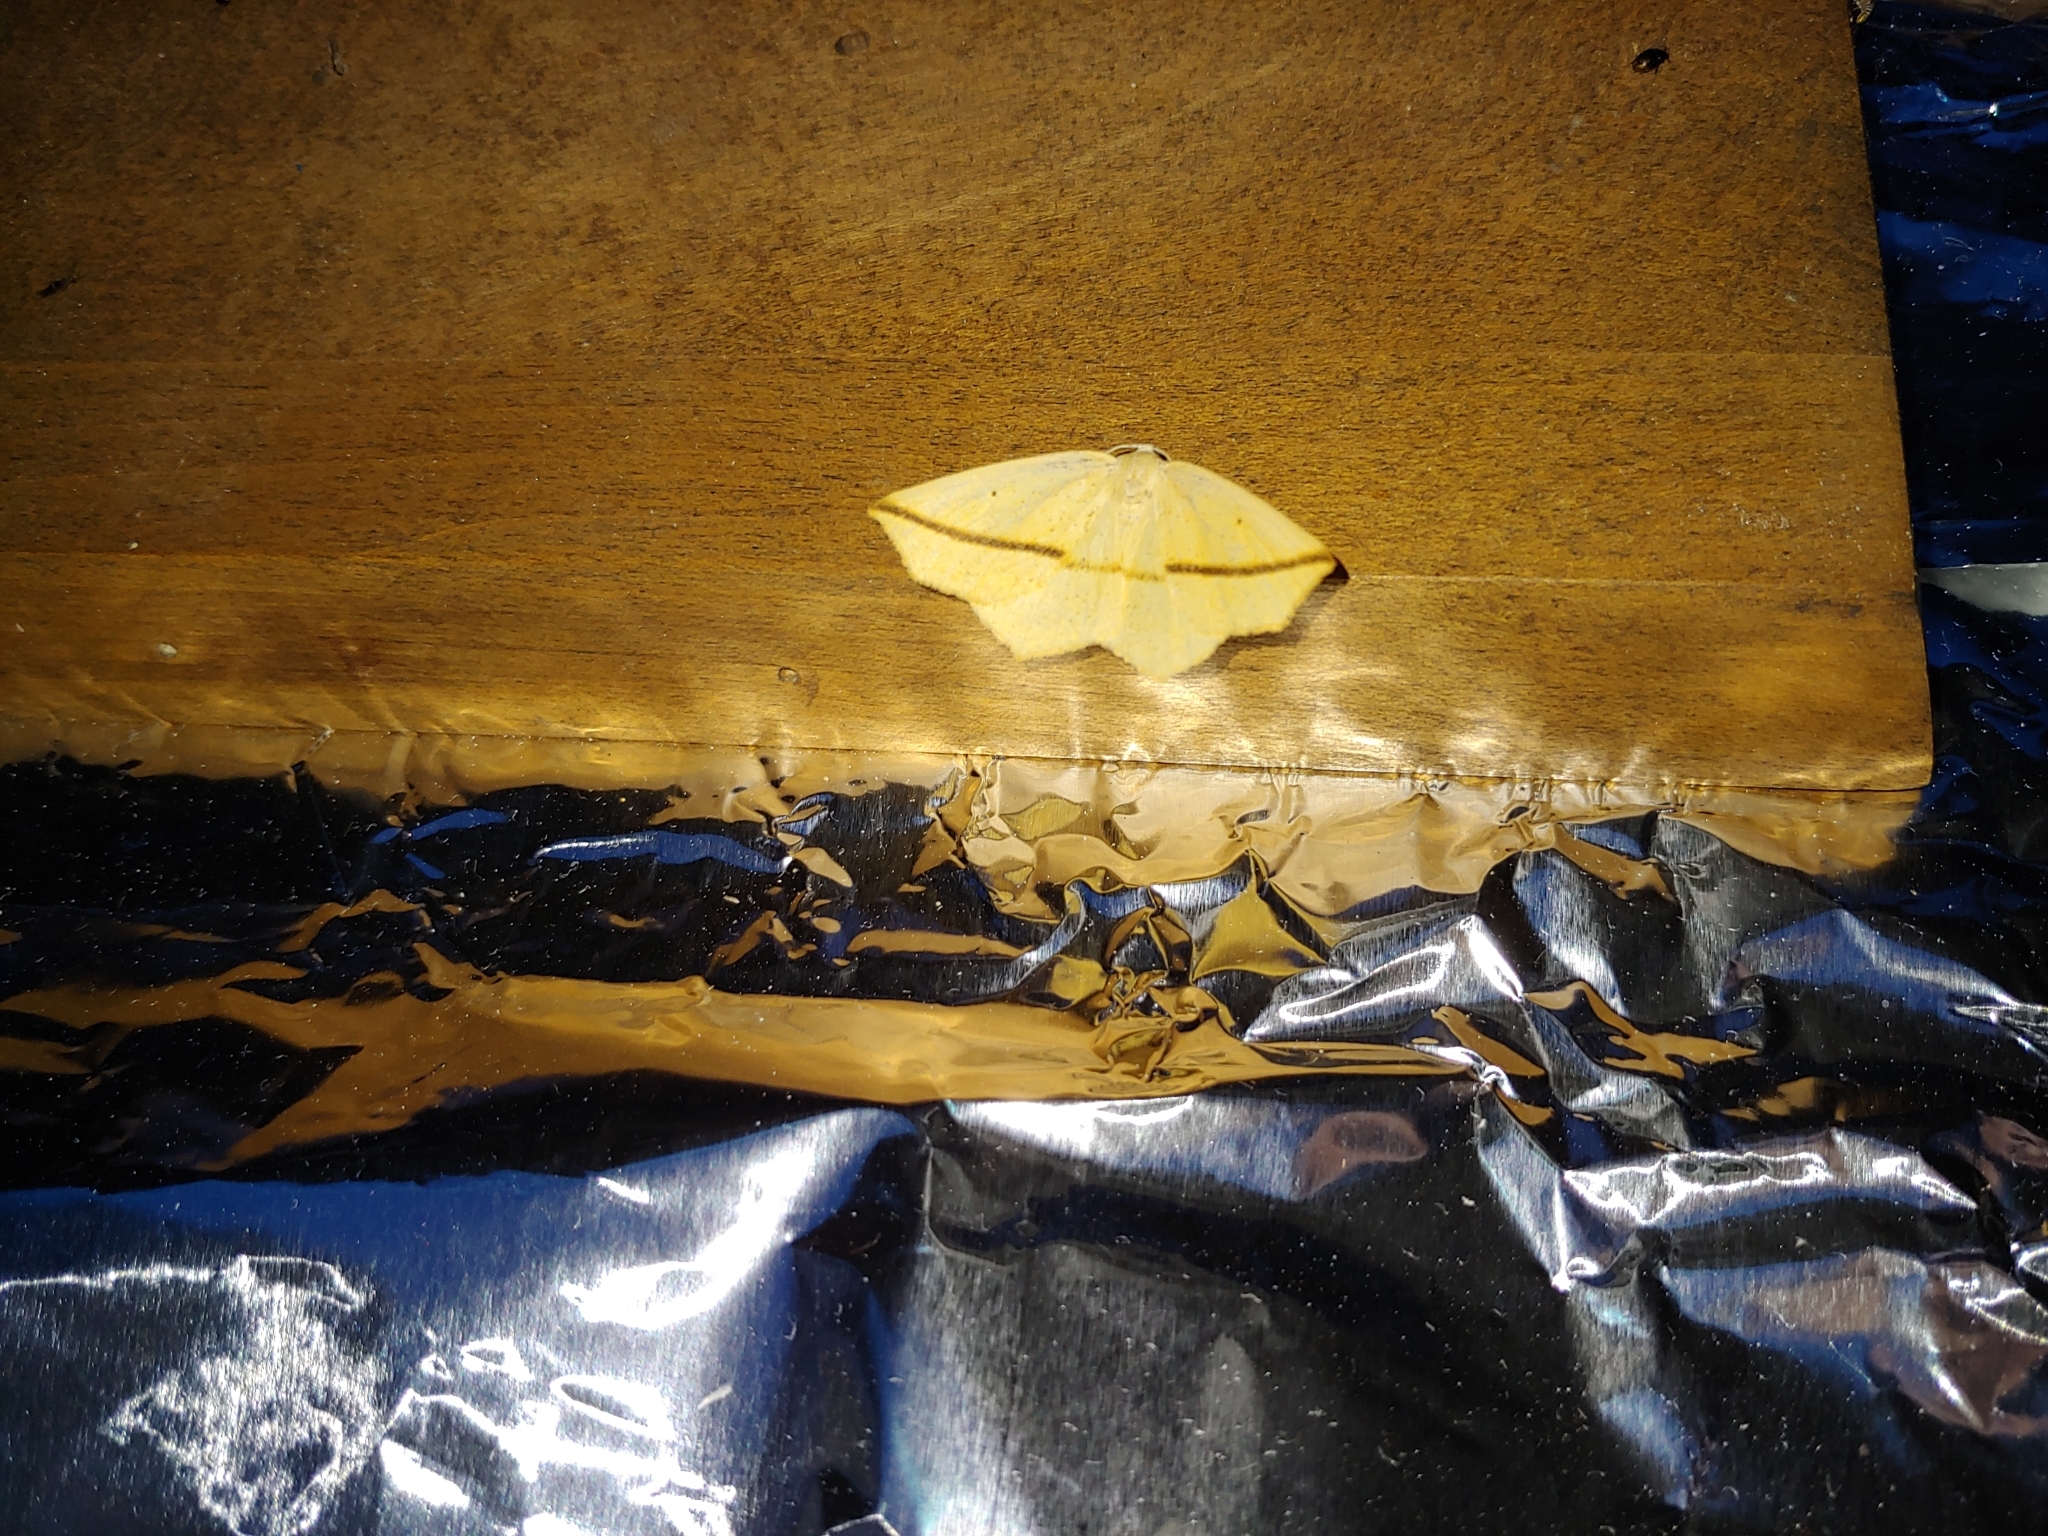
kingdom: Animalia
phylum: Arthropoda
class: Insecta
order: Lepidoptera
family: Geometridae
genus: Tetracis
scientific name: Tetracis crocallata
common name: Yellow slant-line
